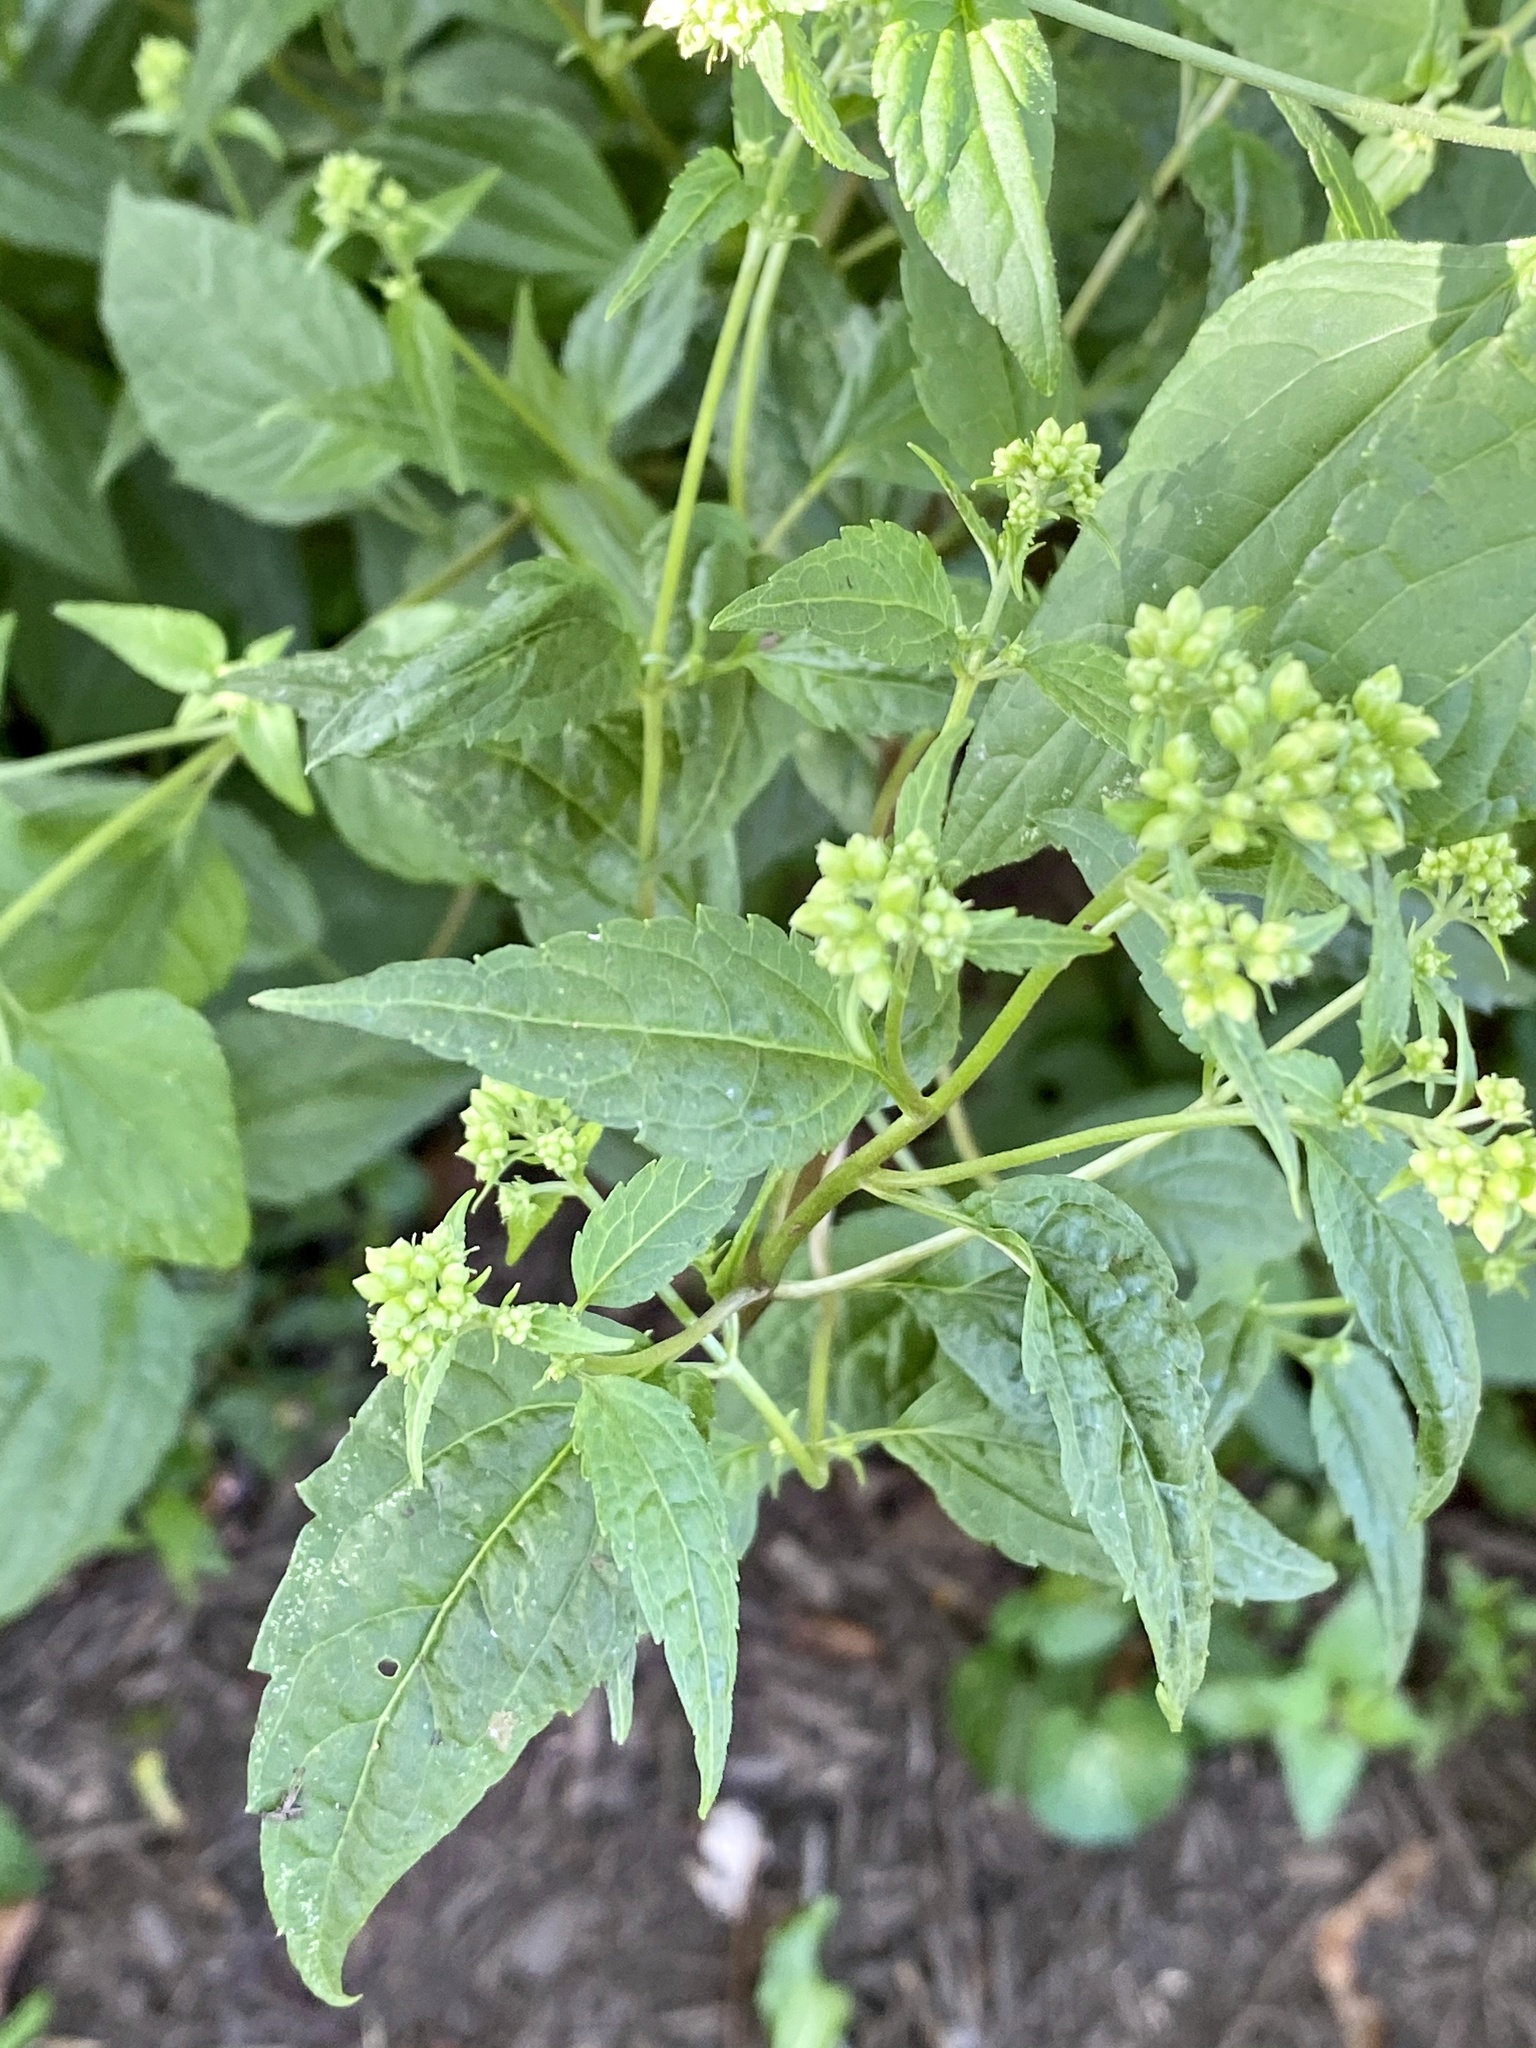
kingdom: Plantae
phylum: Tracheophyta
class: Magnoliopsida
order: Asterales
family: Asteraceae
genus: Ageratina
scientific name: Ageratina altissima
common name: White snakeroot
